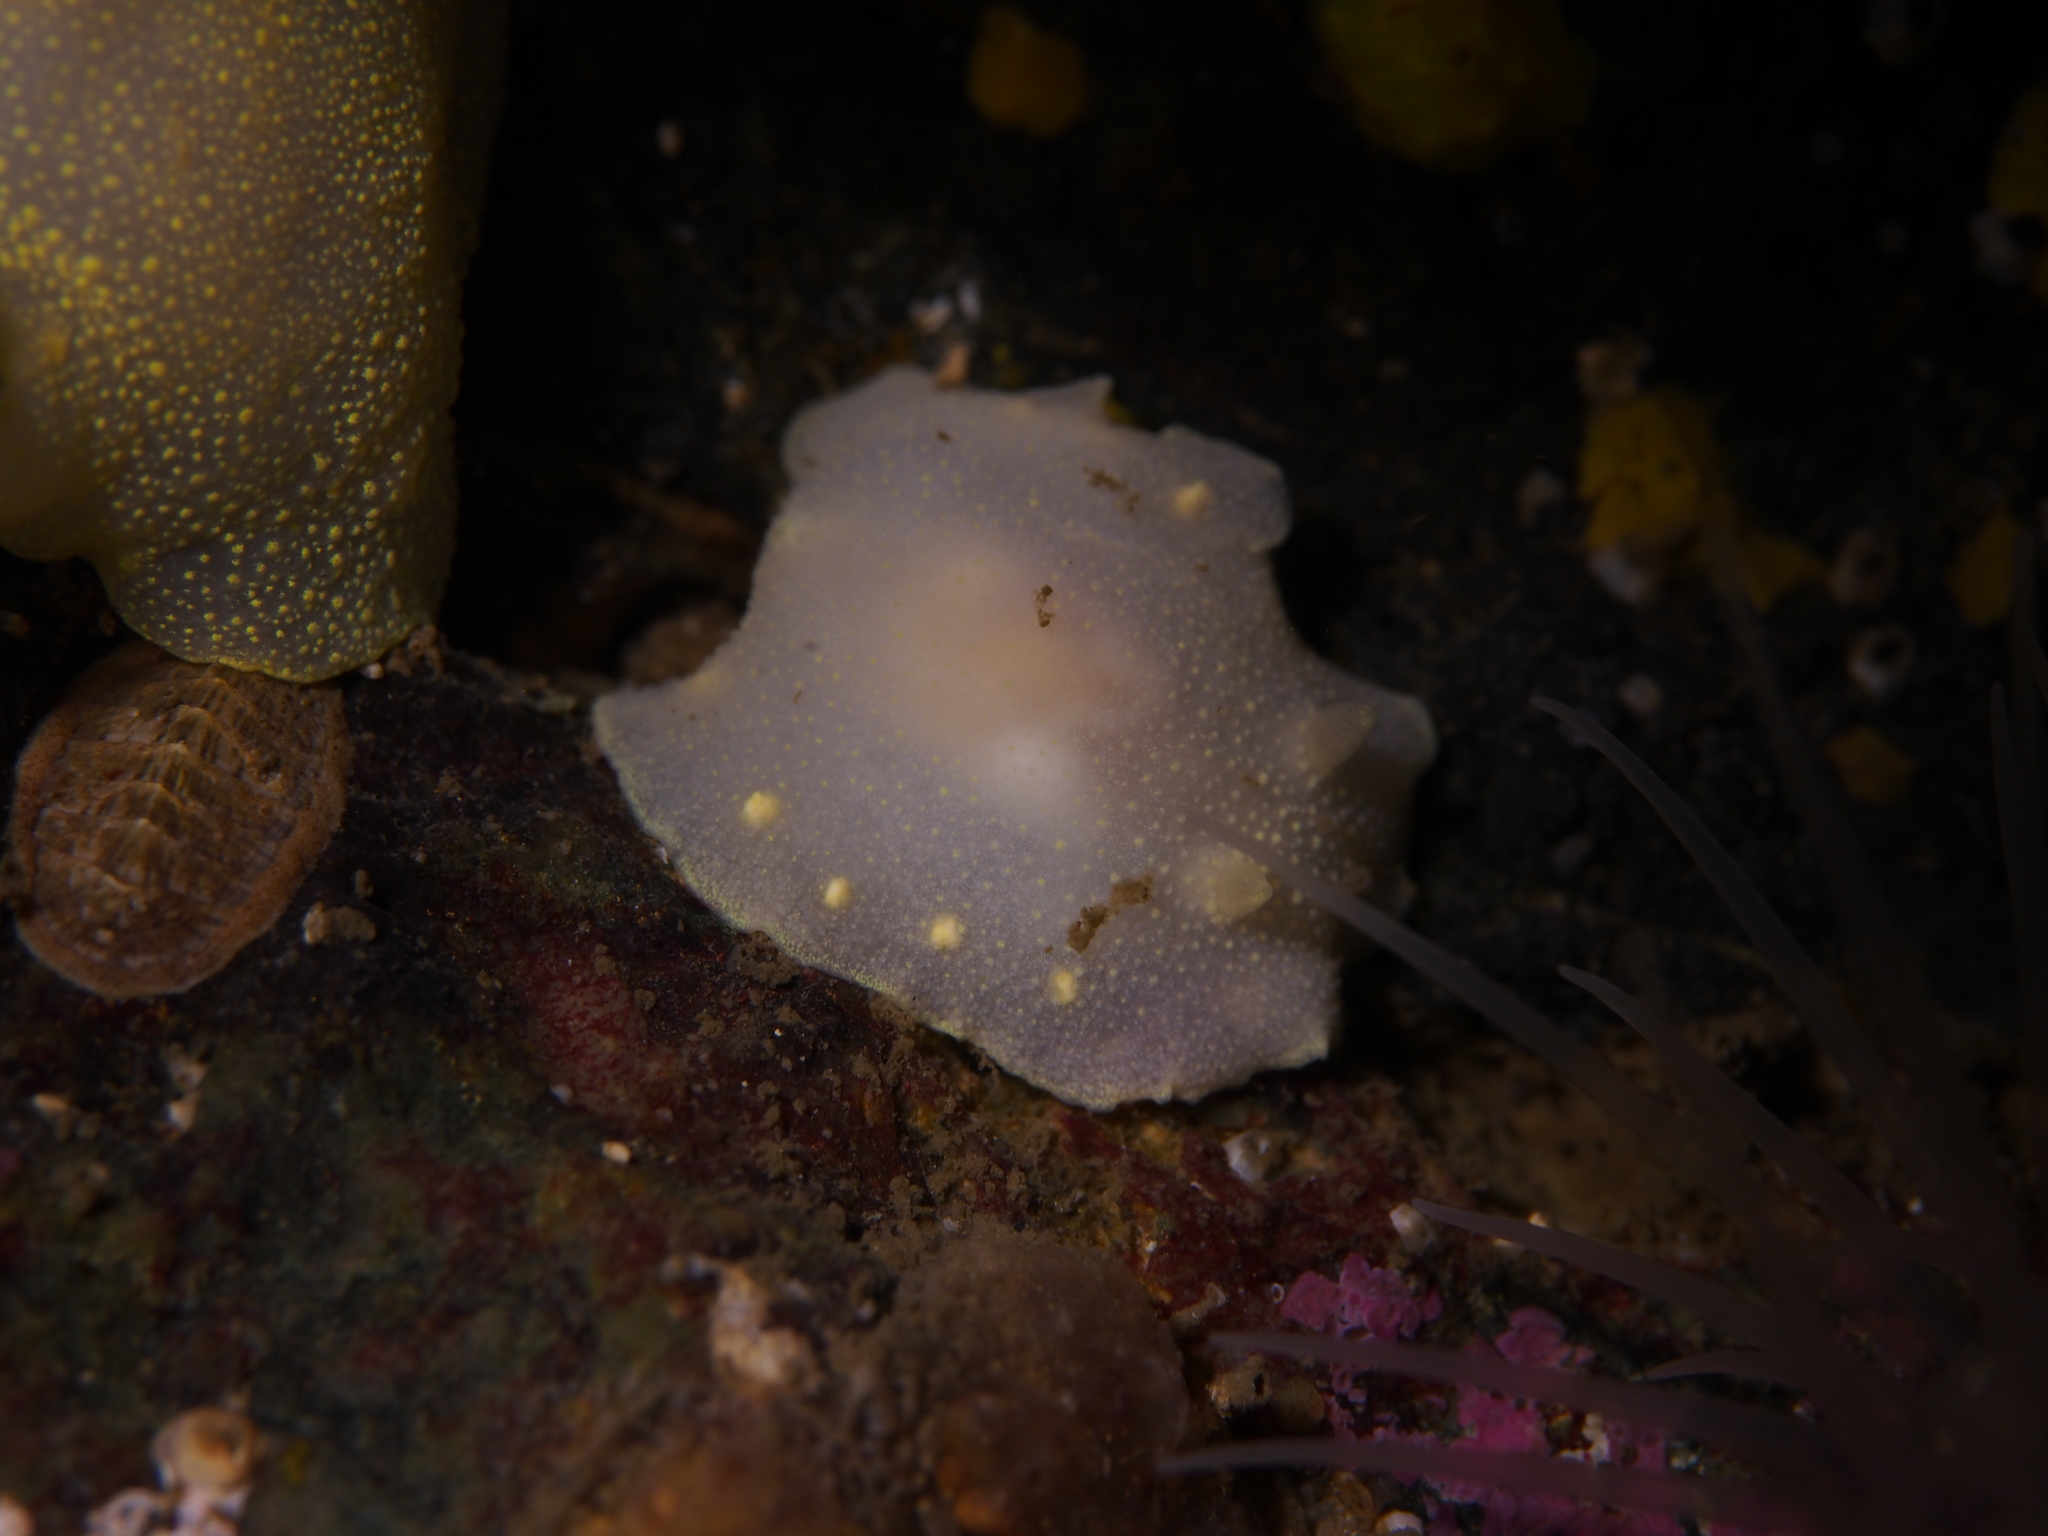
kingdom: Animalia
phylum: Mollusca
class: Gastropoda
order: Nudibranchia
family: Cadlinidae
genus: Cadlina
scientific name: Cadlina laevis
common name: White atlantic cadlina
